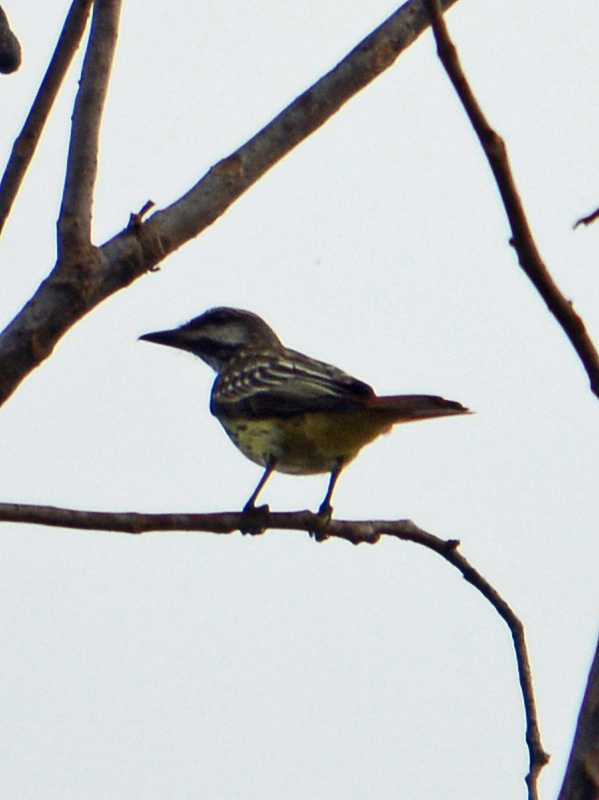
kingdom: Animalia
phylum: Chordata
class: Aves
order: Passeriformes
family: Tyrannidae
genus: Myiodynastes
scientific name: Myiodynastes luteiventris
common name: Sulphur-bellied flycatcher
